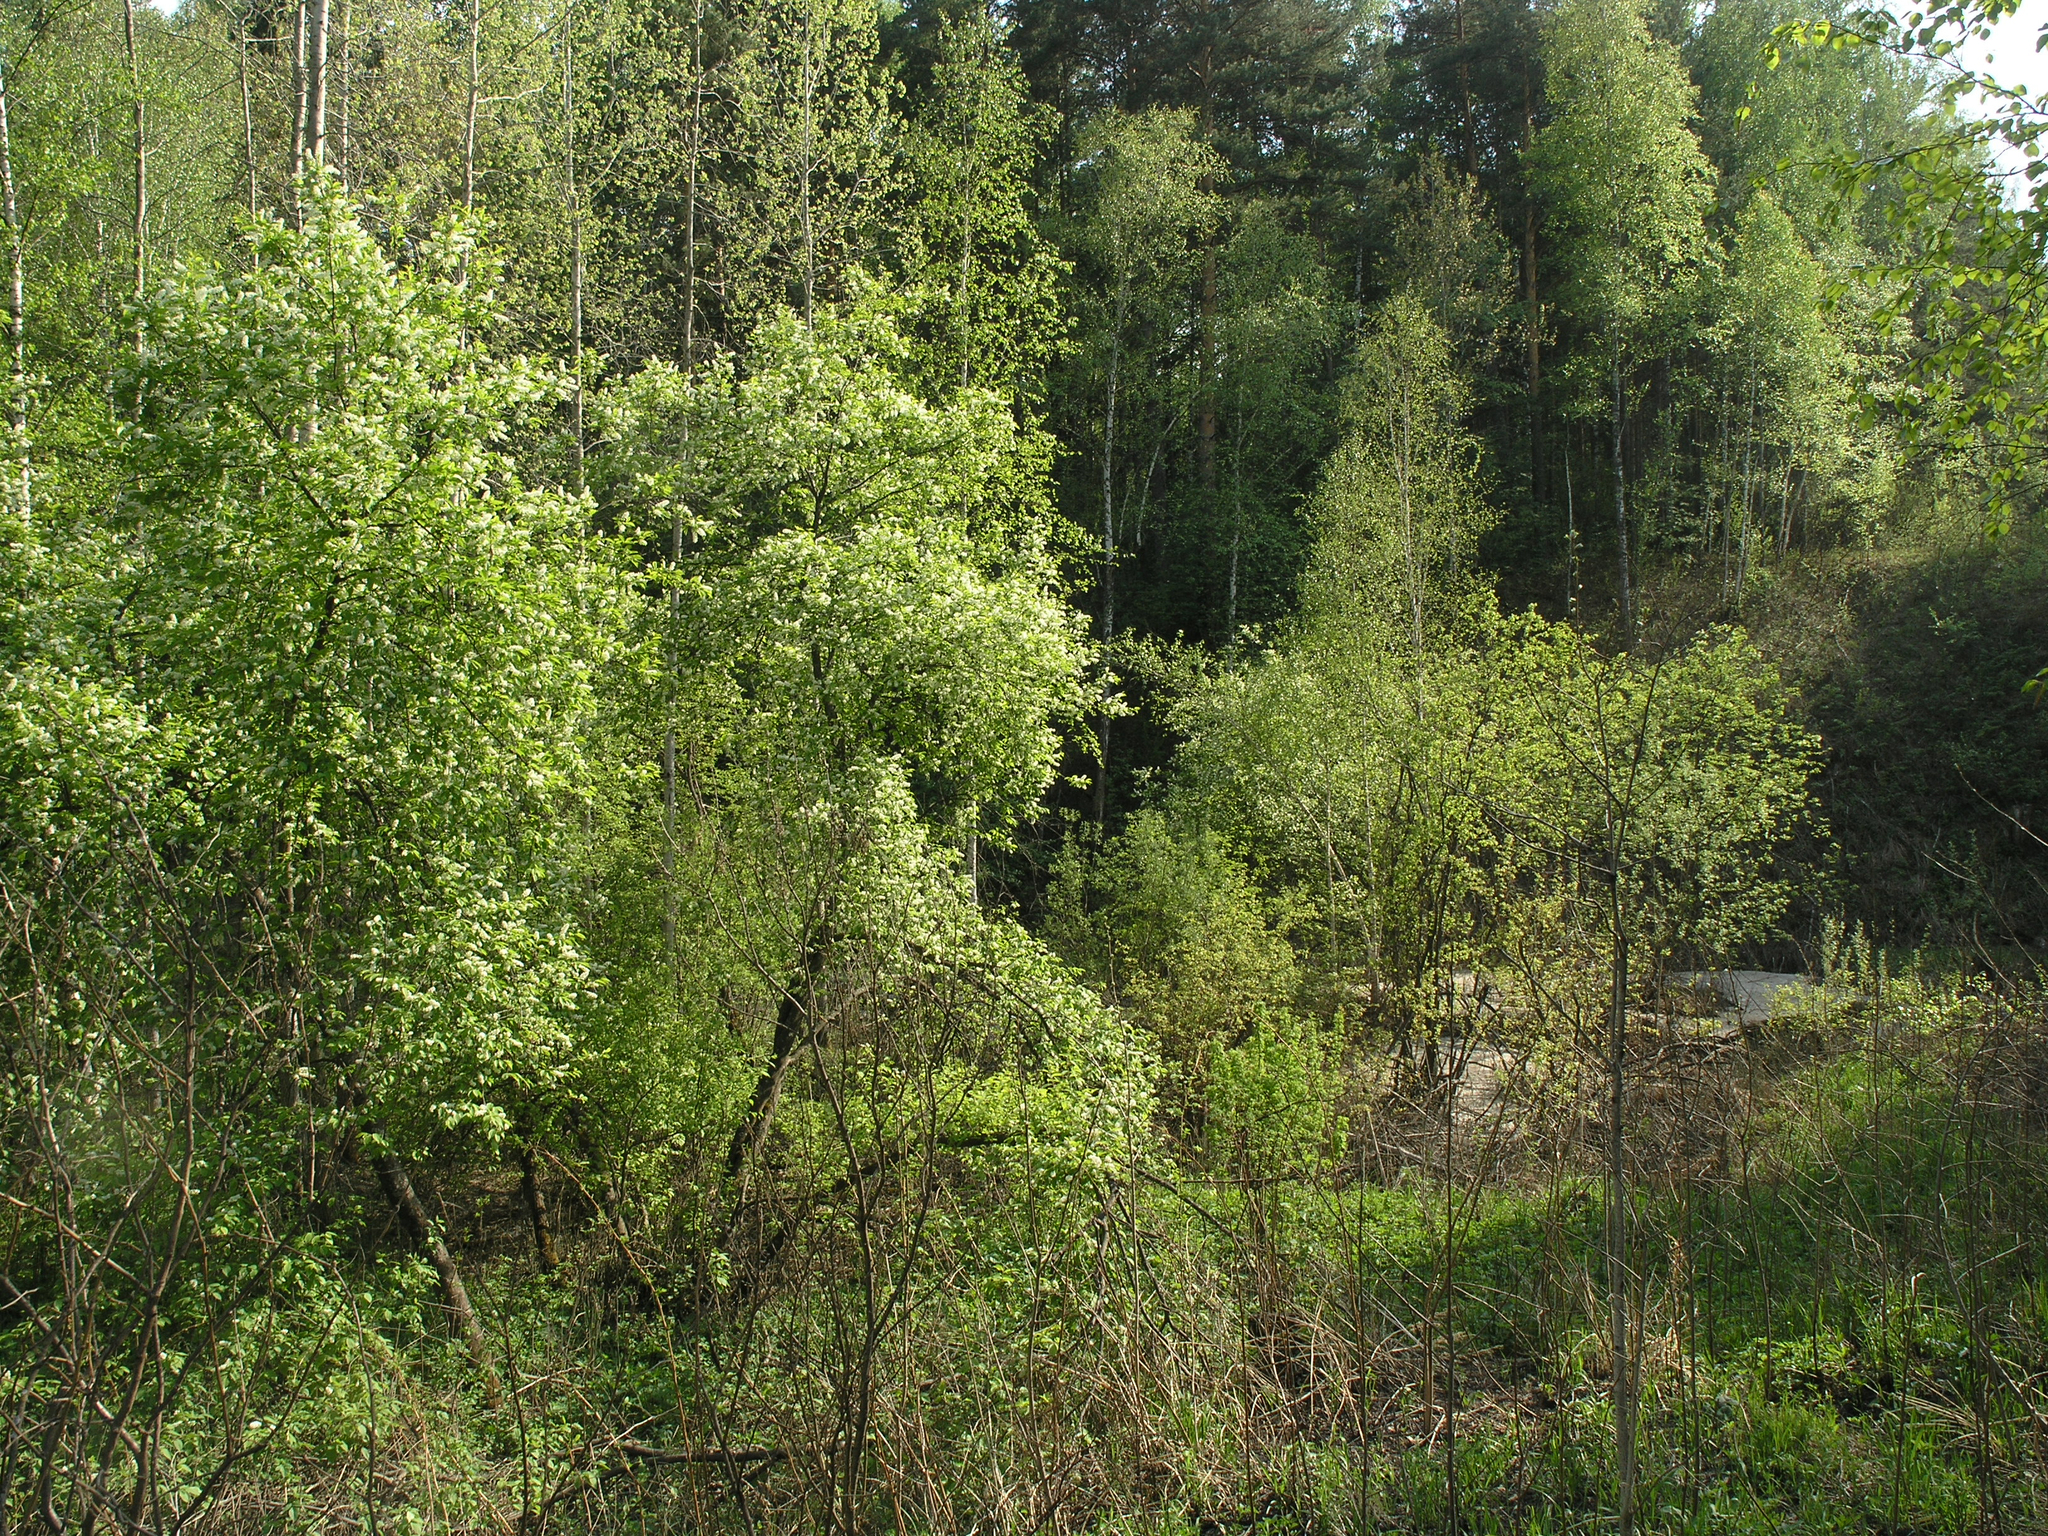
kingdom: Plantae
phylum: Tracheophyta
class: Magnoliopsida
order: Rosales
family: Rosaceae
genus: Prunus
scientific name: Prunus padus
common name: Bird cherry
